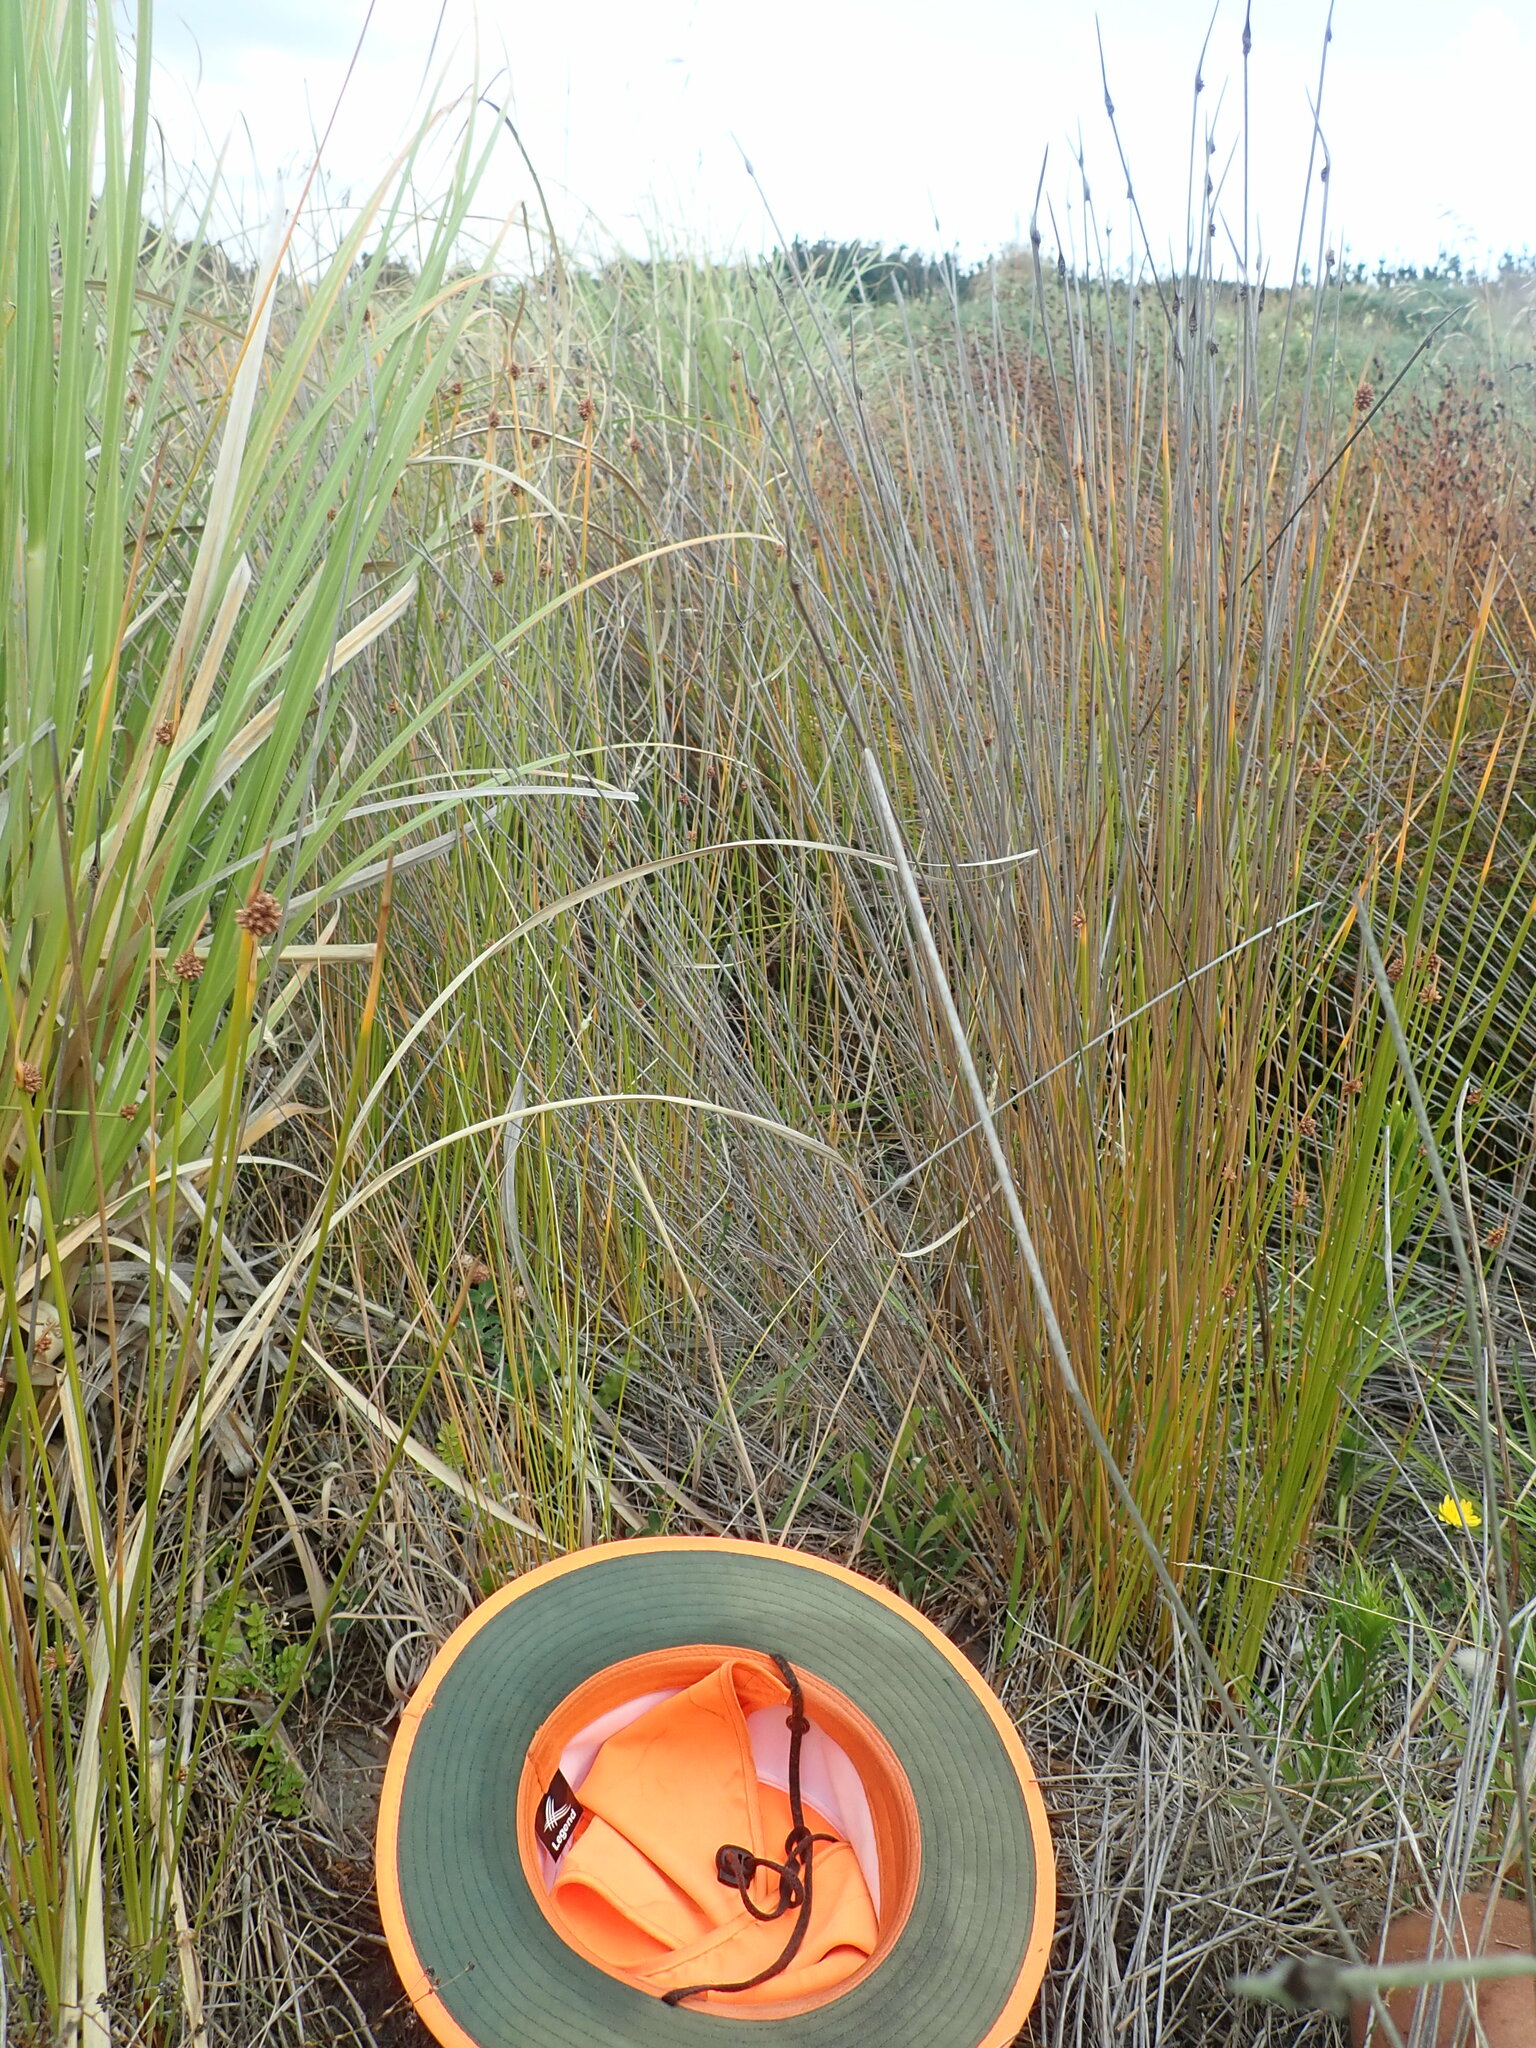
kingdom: Plantae
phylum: Tracheophyta
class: Magnoliopsida
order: Rosales
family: Rosaceae
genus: Acaena
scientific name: Acaena novae-zelandiae
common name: Pirri-pirri-bur
